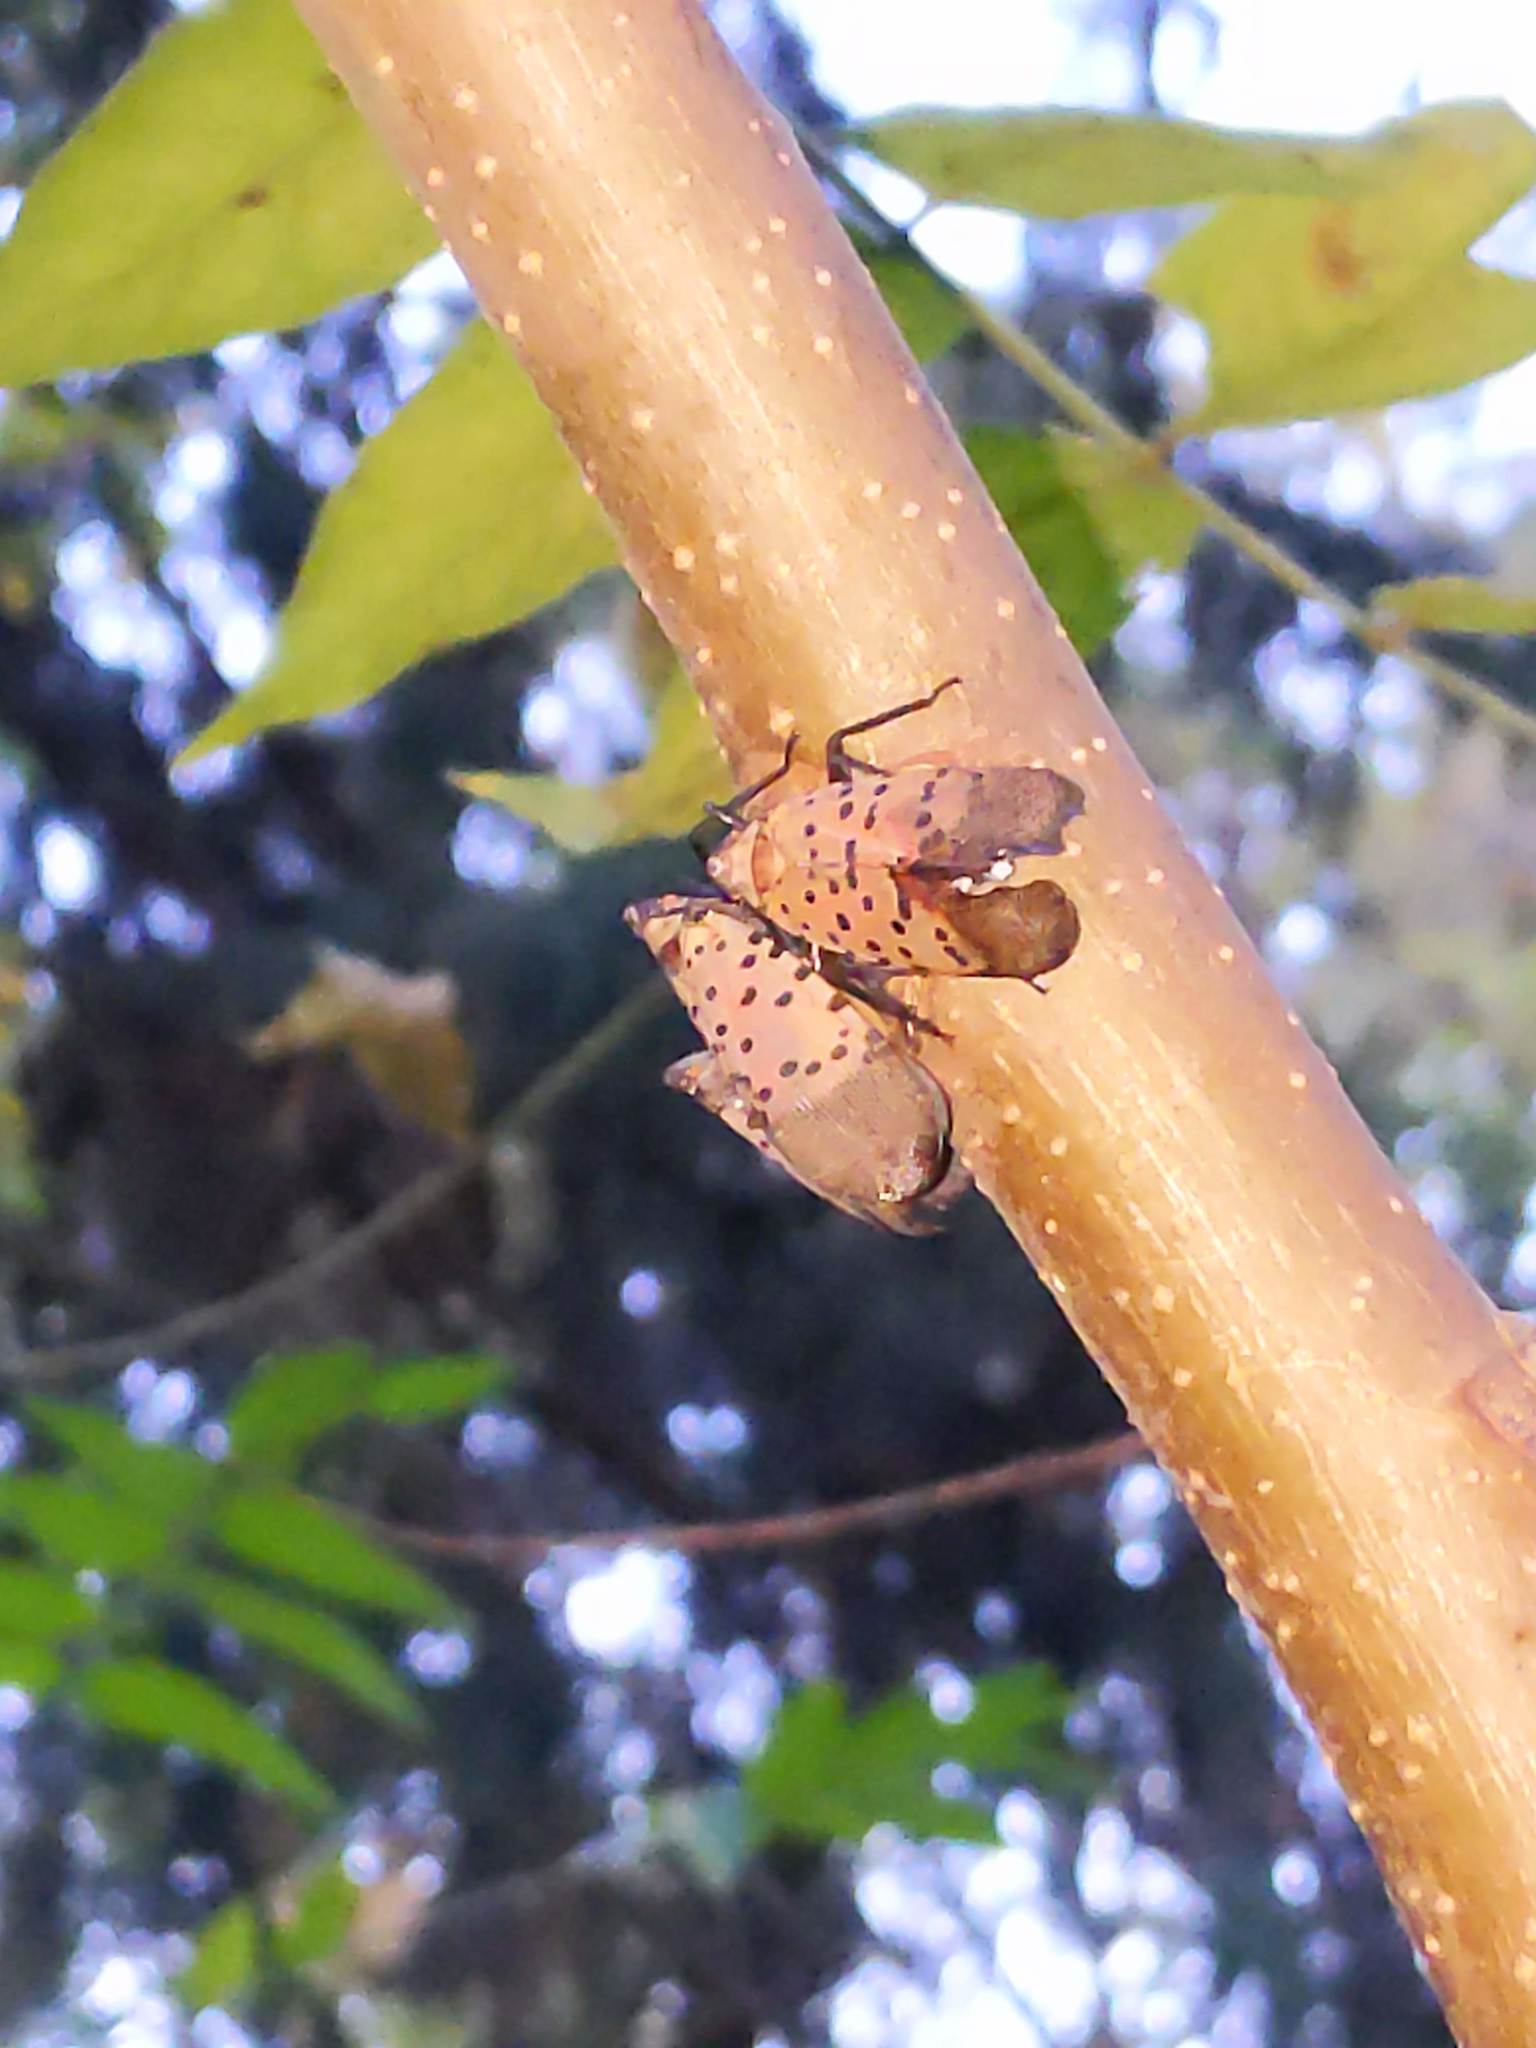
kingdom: Animalia
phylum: Arthropoda
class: Insecta
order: Hemiptera
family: Fulgoridae
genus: Lycorma
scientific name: Lycorma delicatula
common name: Spotted lanternfly
